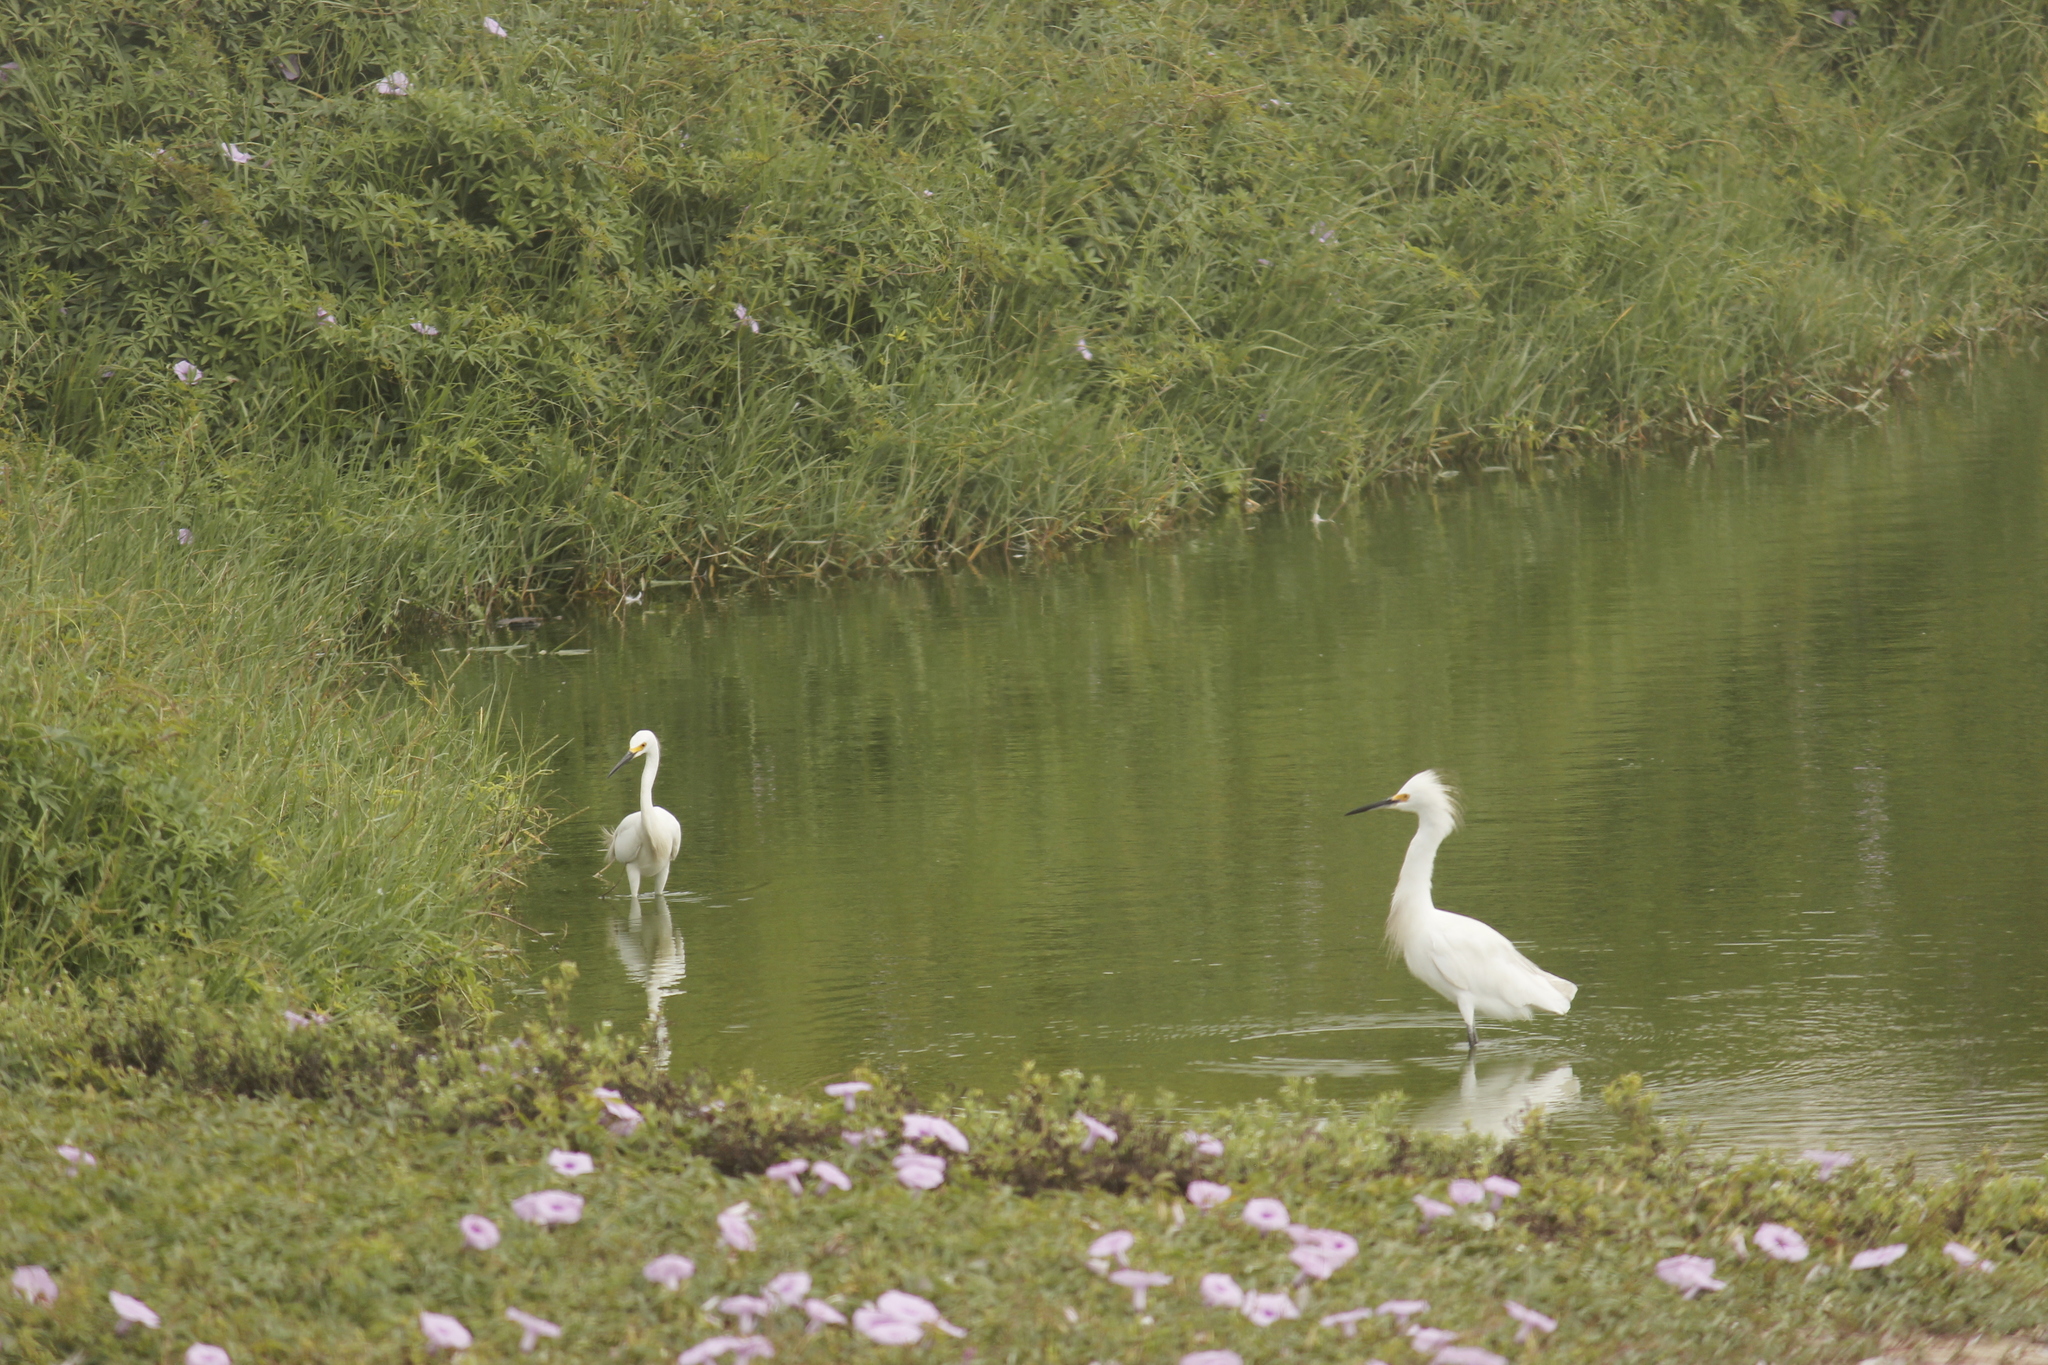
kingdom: Animalia
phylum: Chordata
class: Aves
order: Pelecaniformes
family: Ardeidae
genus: Egretta
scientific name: Egretta thula
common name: Snowy egret
